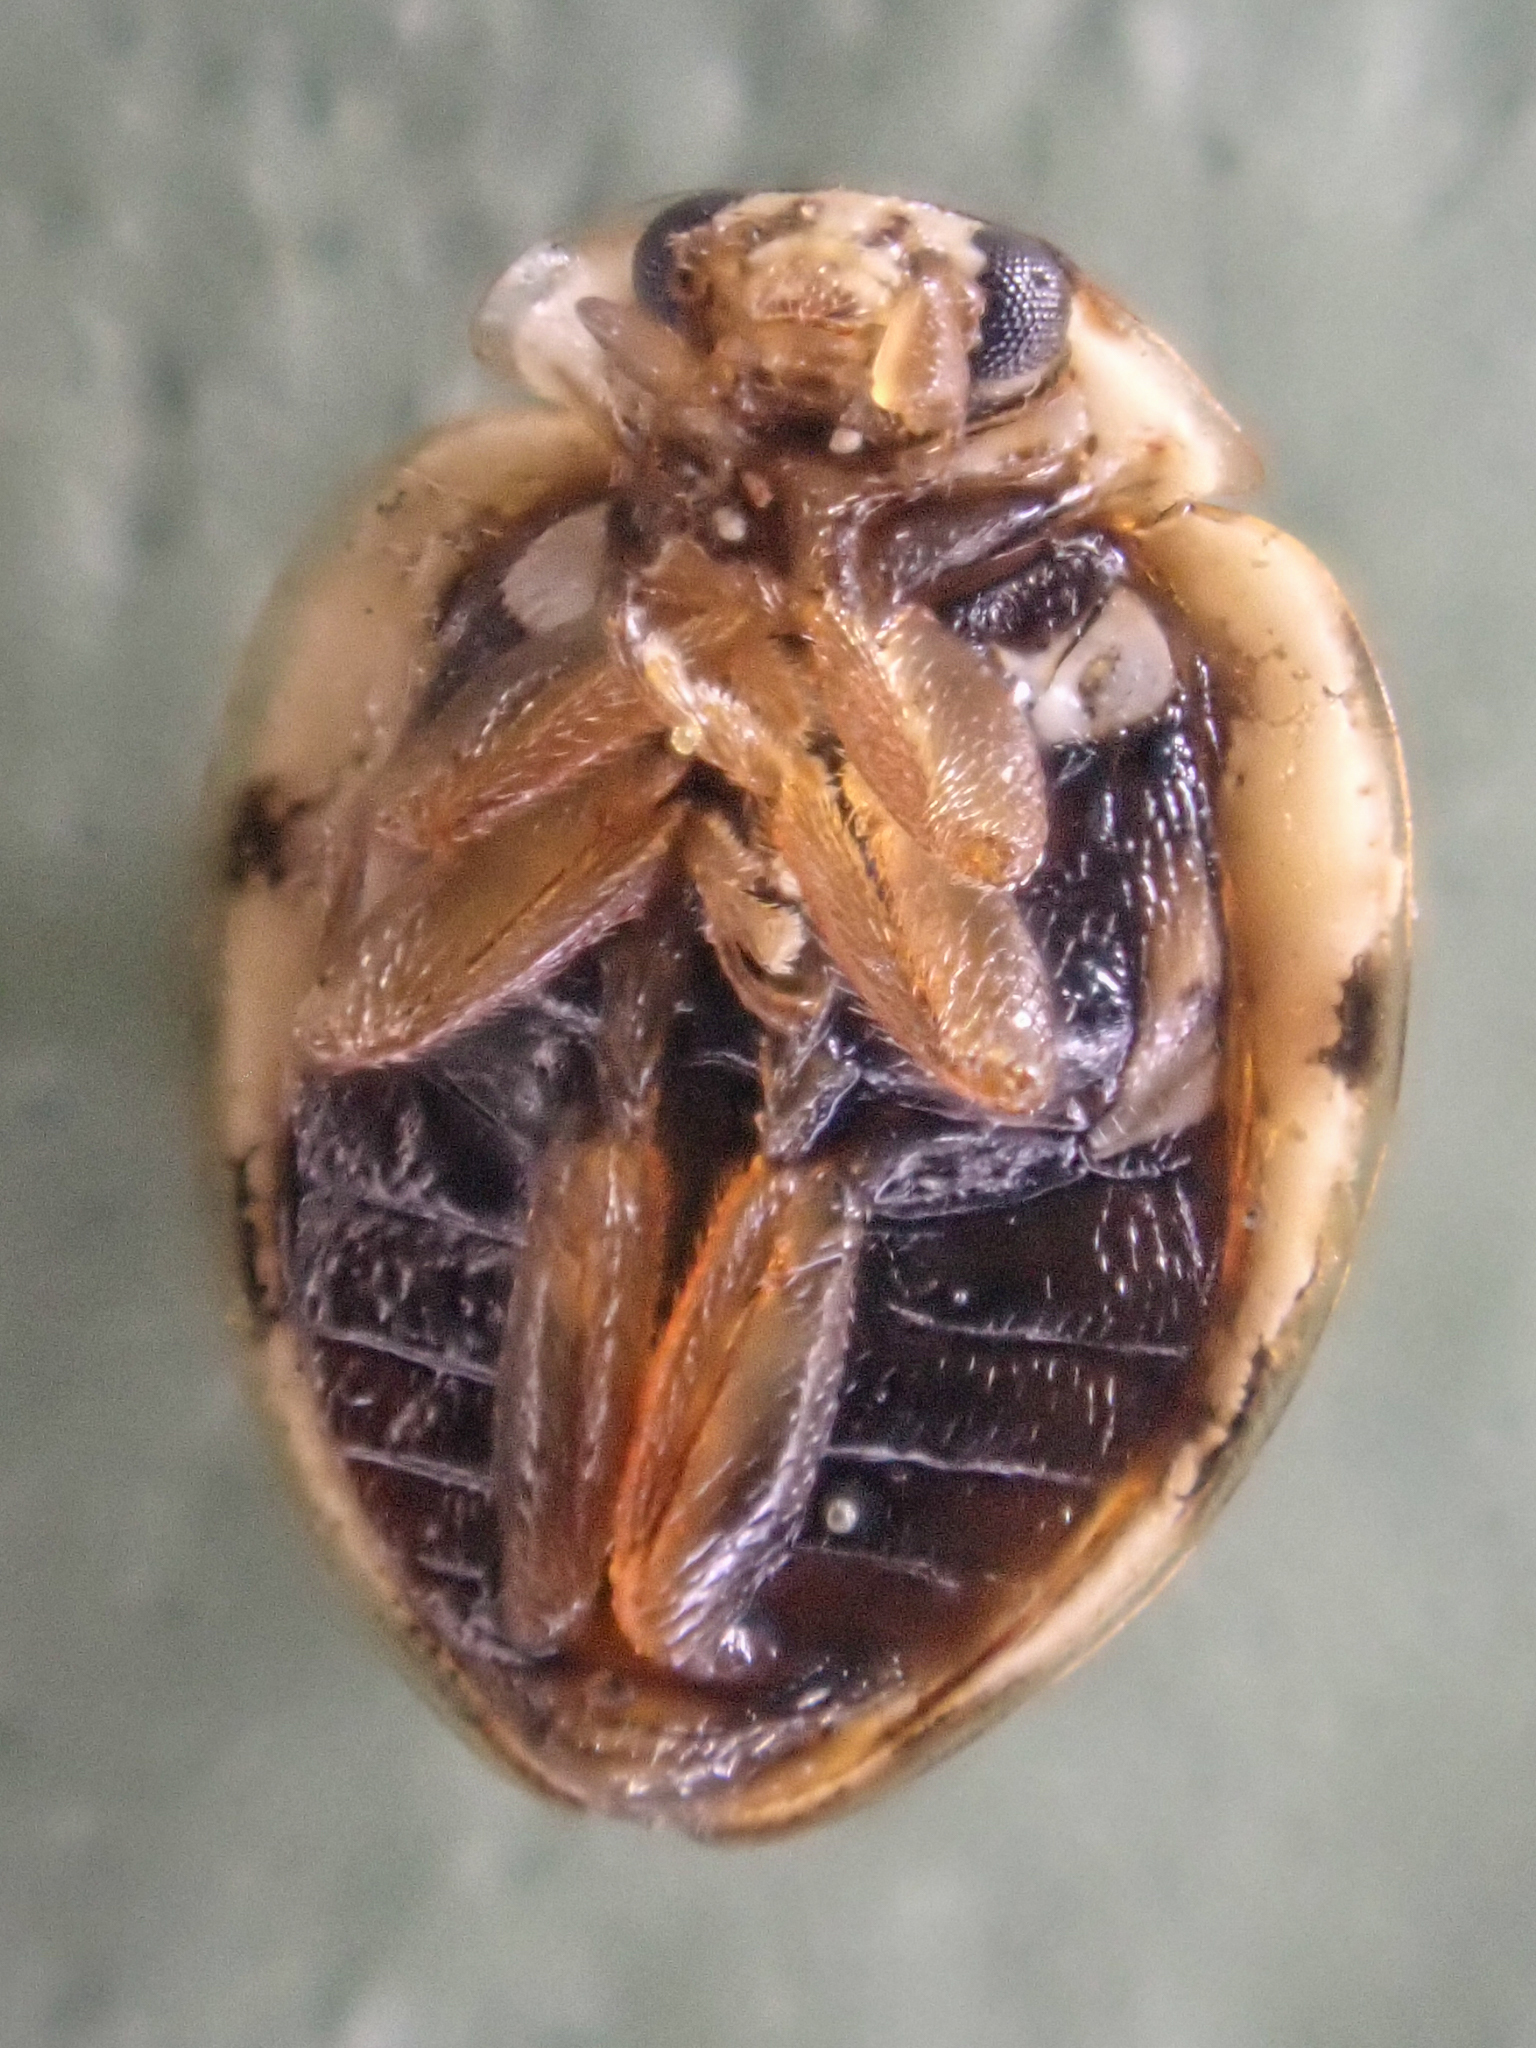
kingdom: Animalia
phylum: Arthropoda
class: Insecta
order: Coleoptera
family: Coccinellidae
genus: Psyllobora
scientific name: Psyllobora borealis
